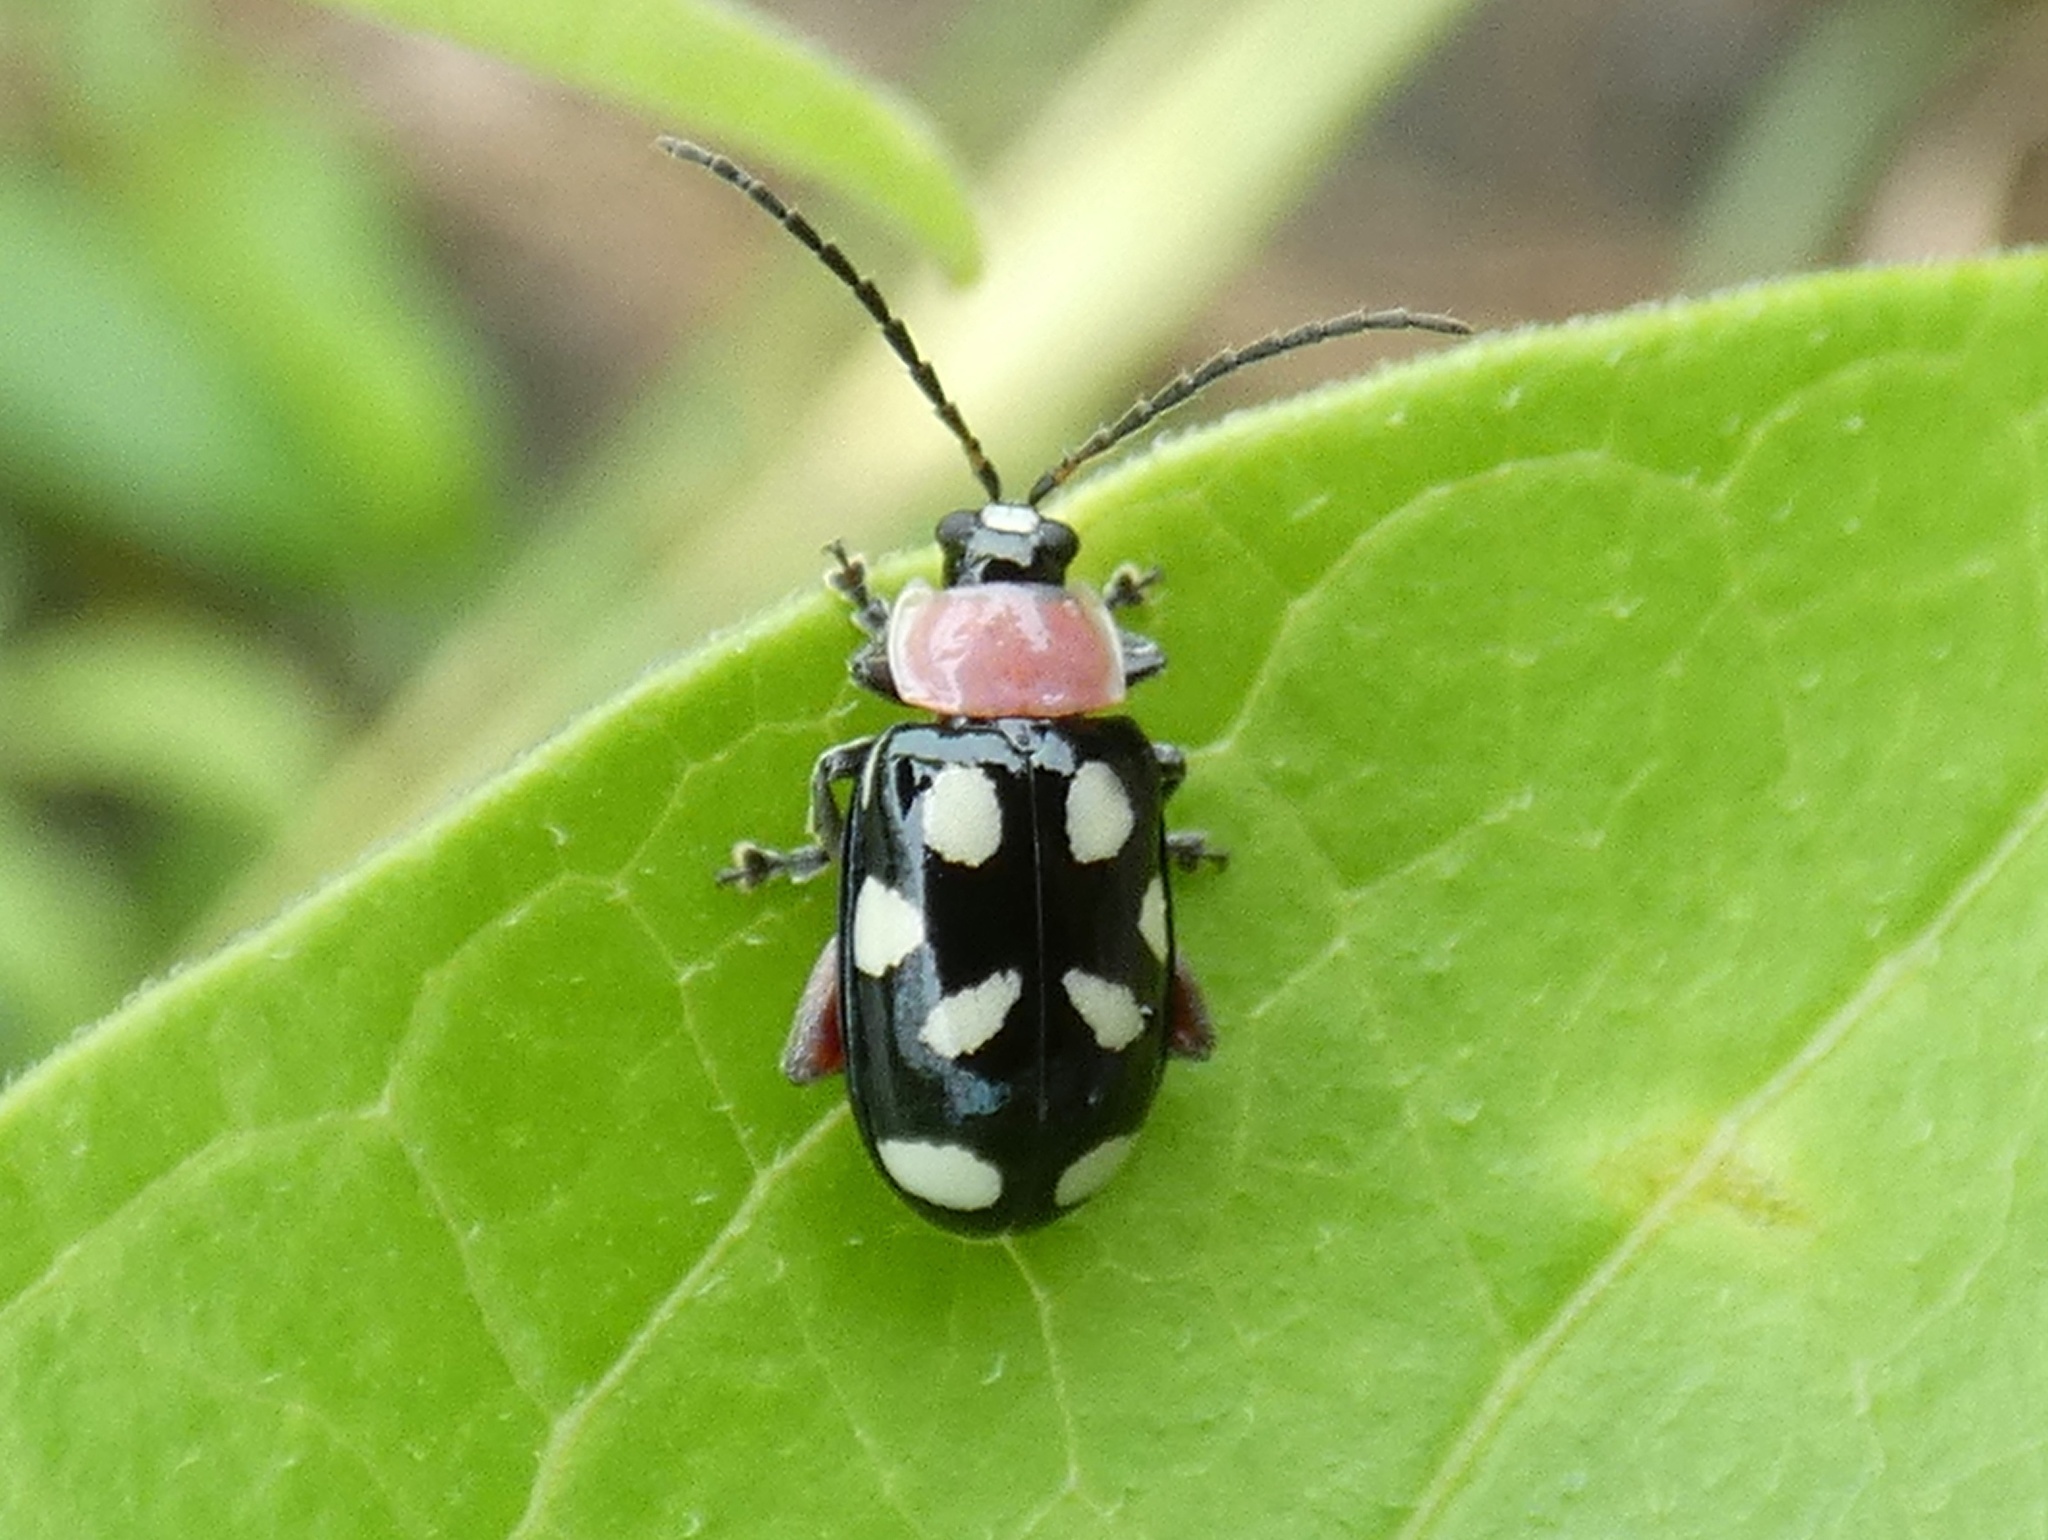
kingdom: Animalia
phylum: Arthropoda
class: Insecta
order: Coleoptera
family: Chrysomelidae
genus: Omophoita
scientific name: Omophoita aequinoctialis
